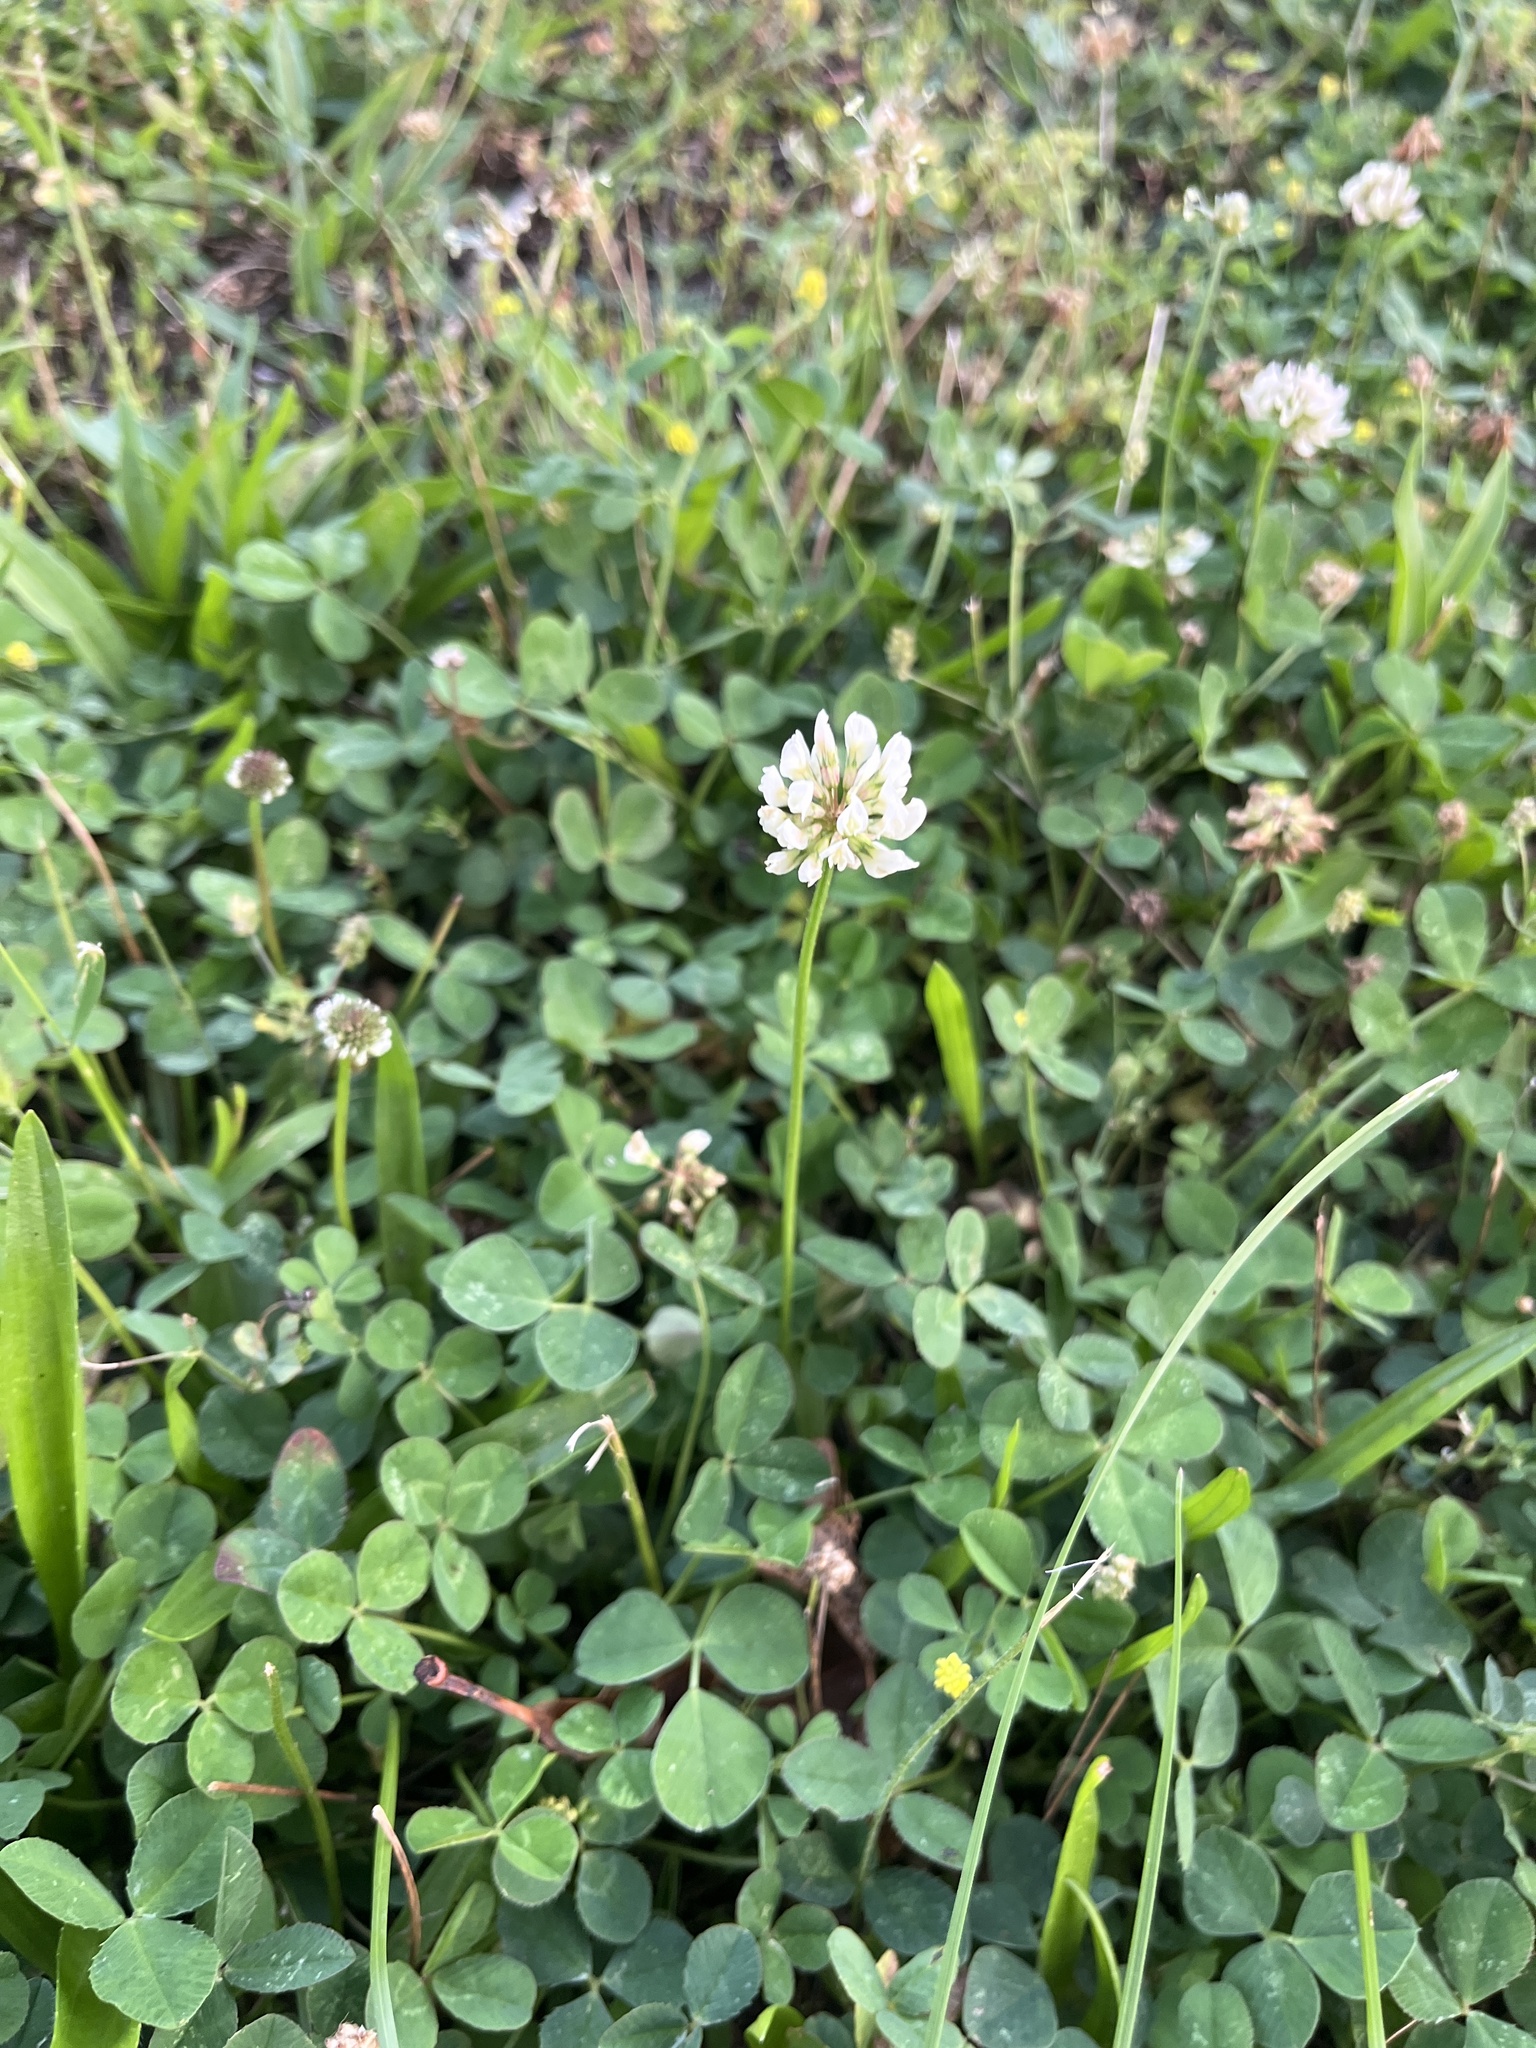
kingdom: Plantae
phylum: Tracheophyta
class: Magnoliopsida
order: Fabales
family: Fabaceae
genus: Trifolium
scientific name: Trifolium repens
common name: White clover
